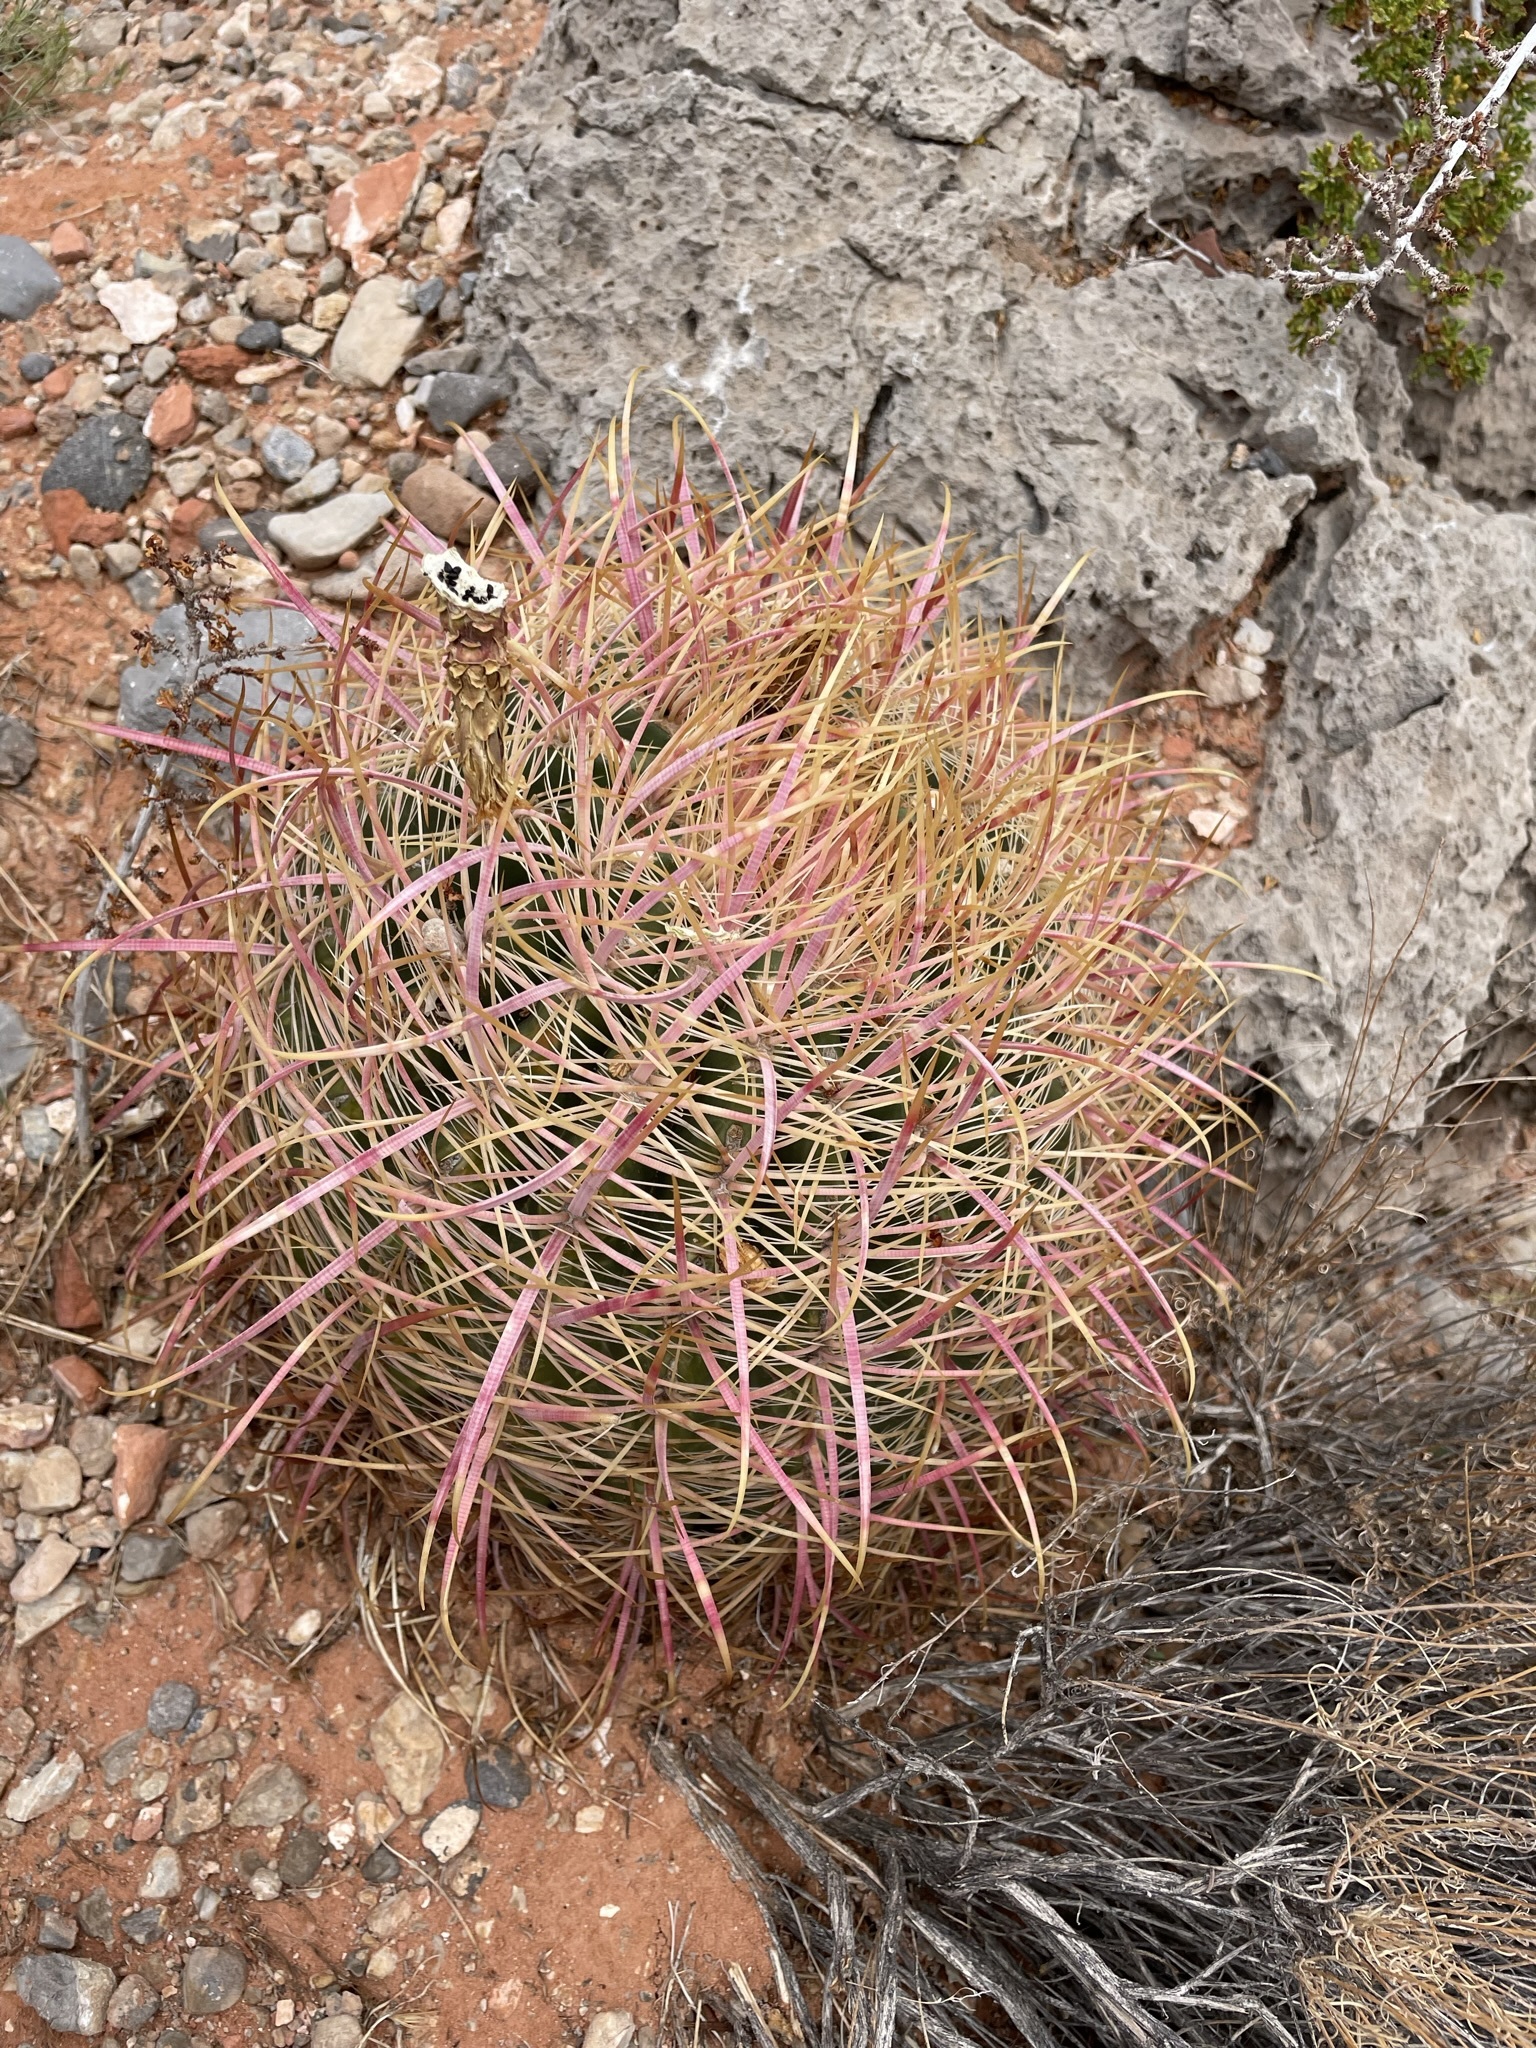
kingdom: Plantae
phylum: Tracheophyta
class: Magnoliopsida
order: Caryophyllales
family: Cactaceae
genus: Ferocactus
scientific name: Ferocactus cylindraceus
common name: California barrel cactus
